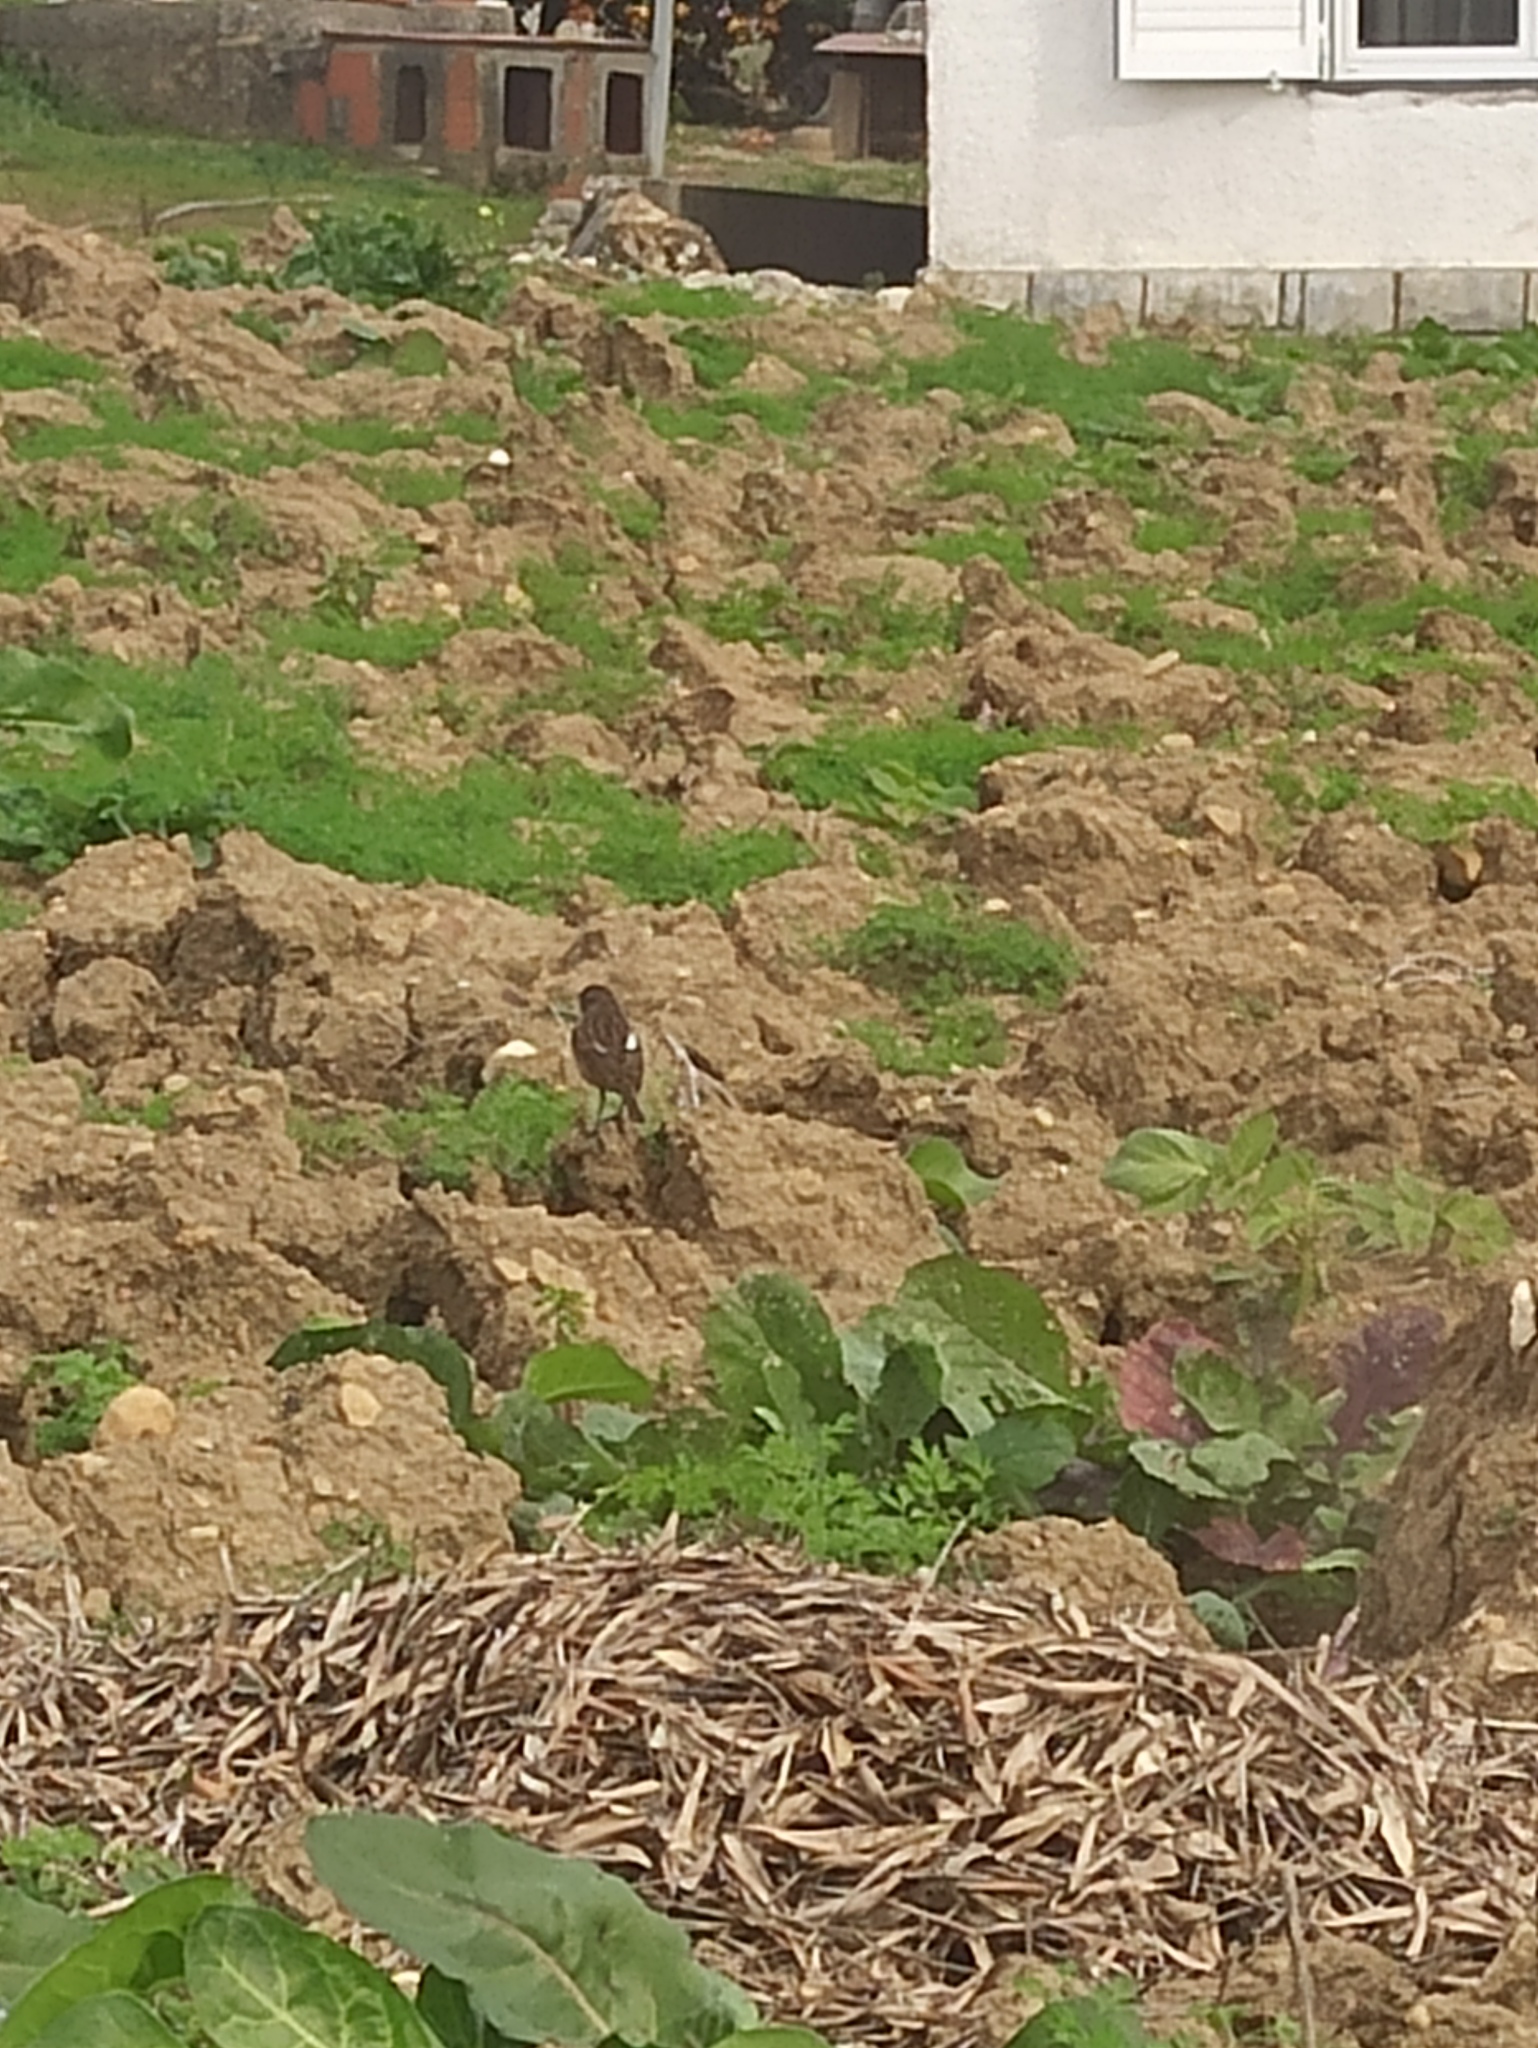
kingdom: Animalia
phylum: Chordata
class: Aves
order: Passeriformes
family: Muscicapidae
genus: Saxicola
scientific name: Saxicola rubicola
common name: European stonechat
